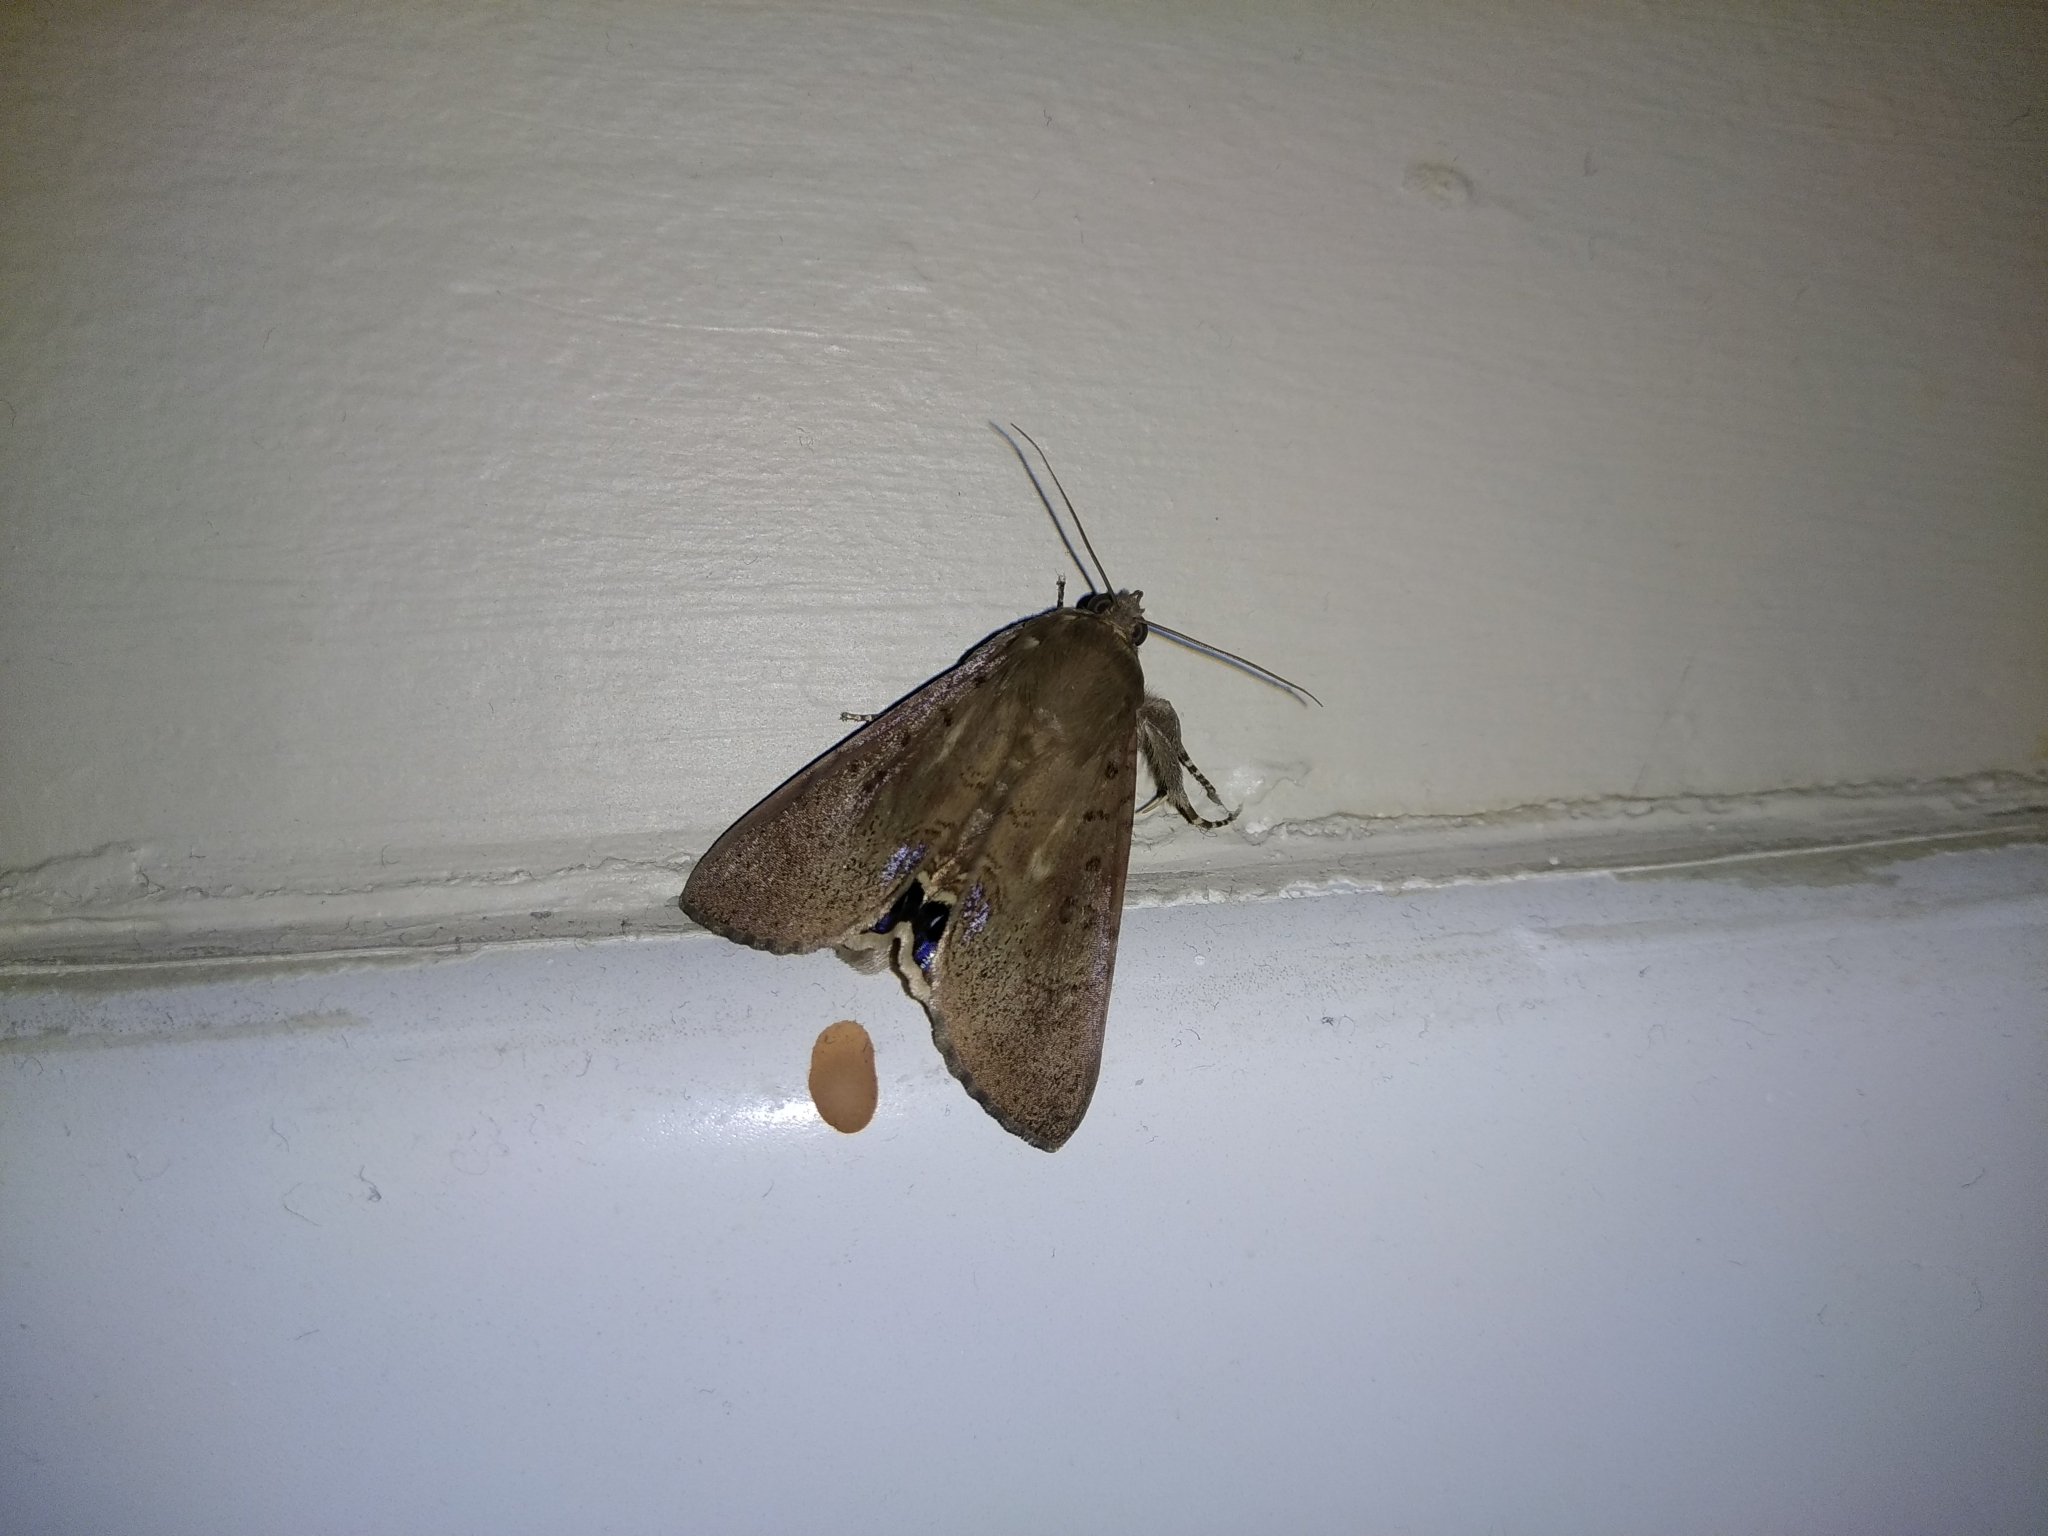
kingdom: Animalia
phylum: Arthropoda
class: Insecta
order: Lepidoptera
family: Erebidae
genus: Litoprosopus
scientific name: Litoprosopus futilis
